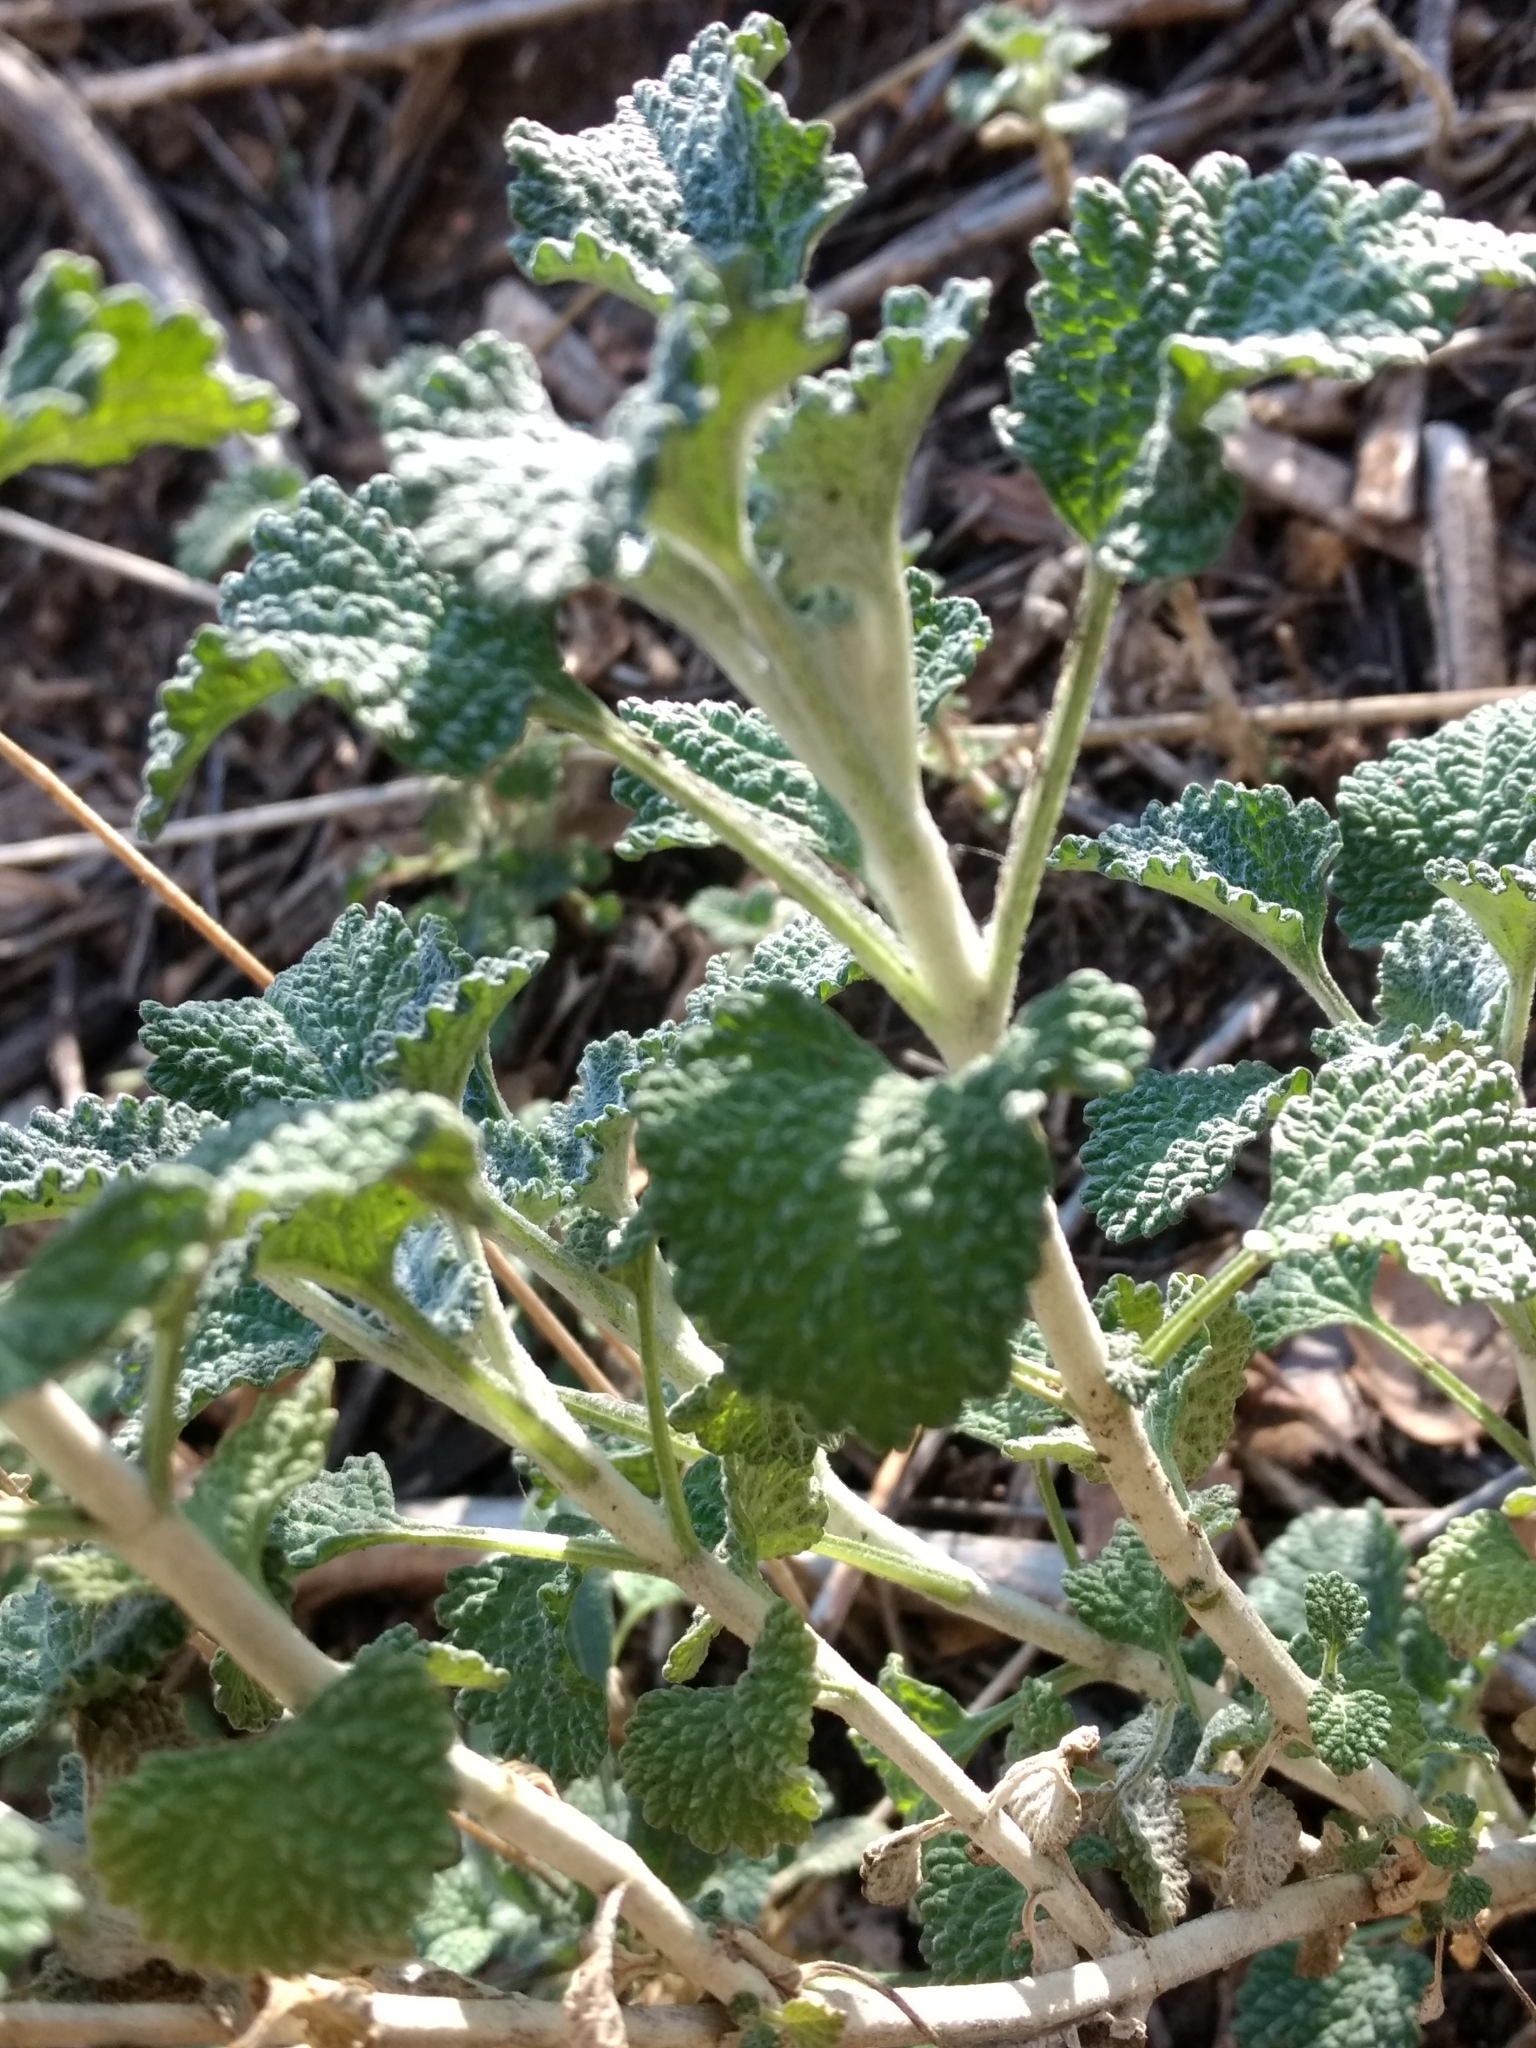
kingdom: Plantae
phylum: Tracheophyta
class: Magnoliopsida
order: Lamiales
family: Lamiaceae
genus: Marrubium
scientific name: Marrubium vulgare
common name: Horehound
